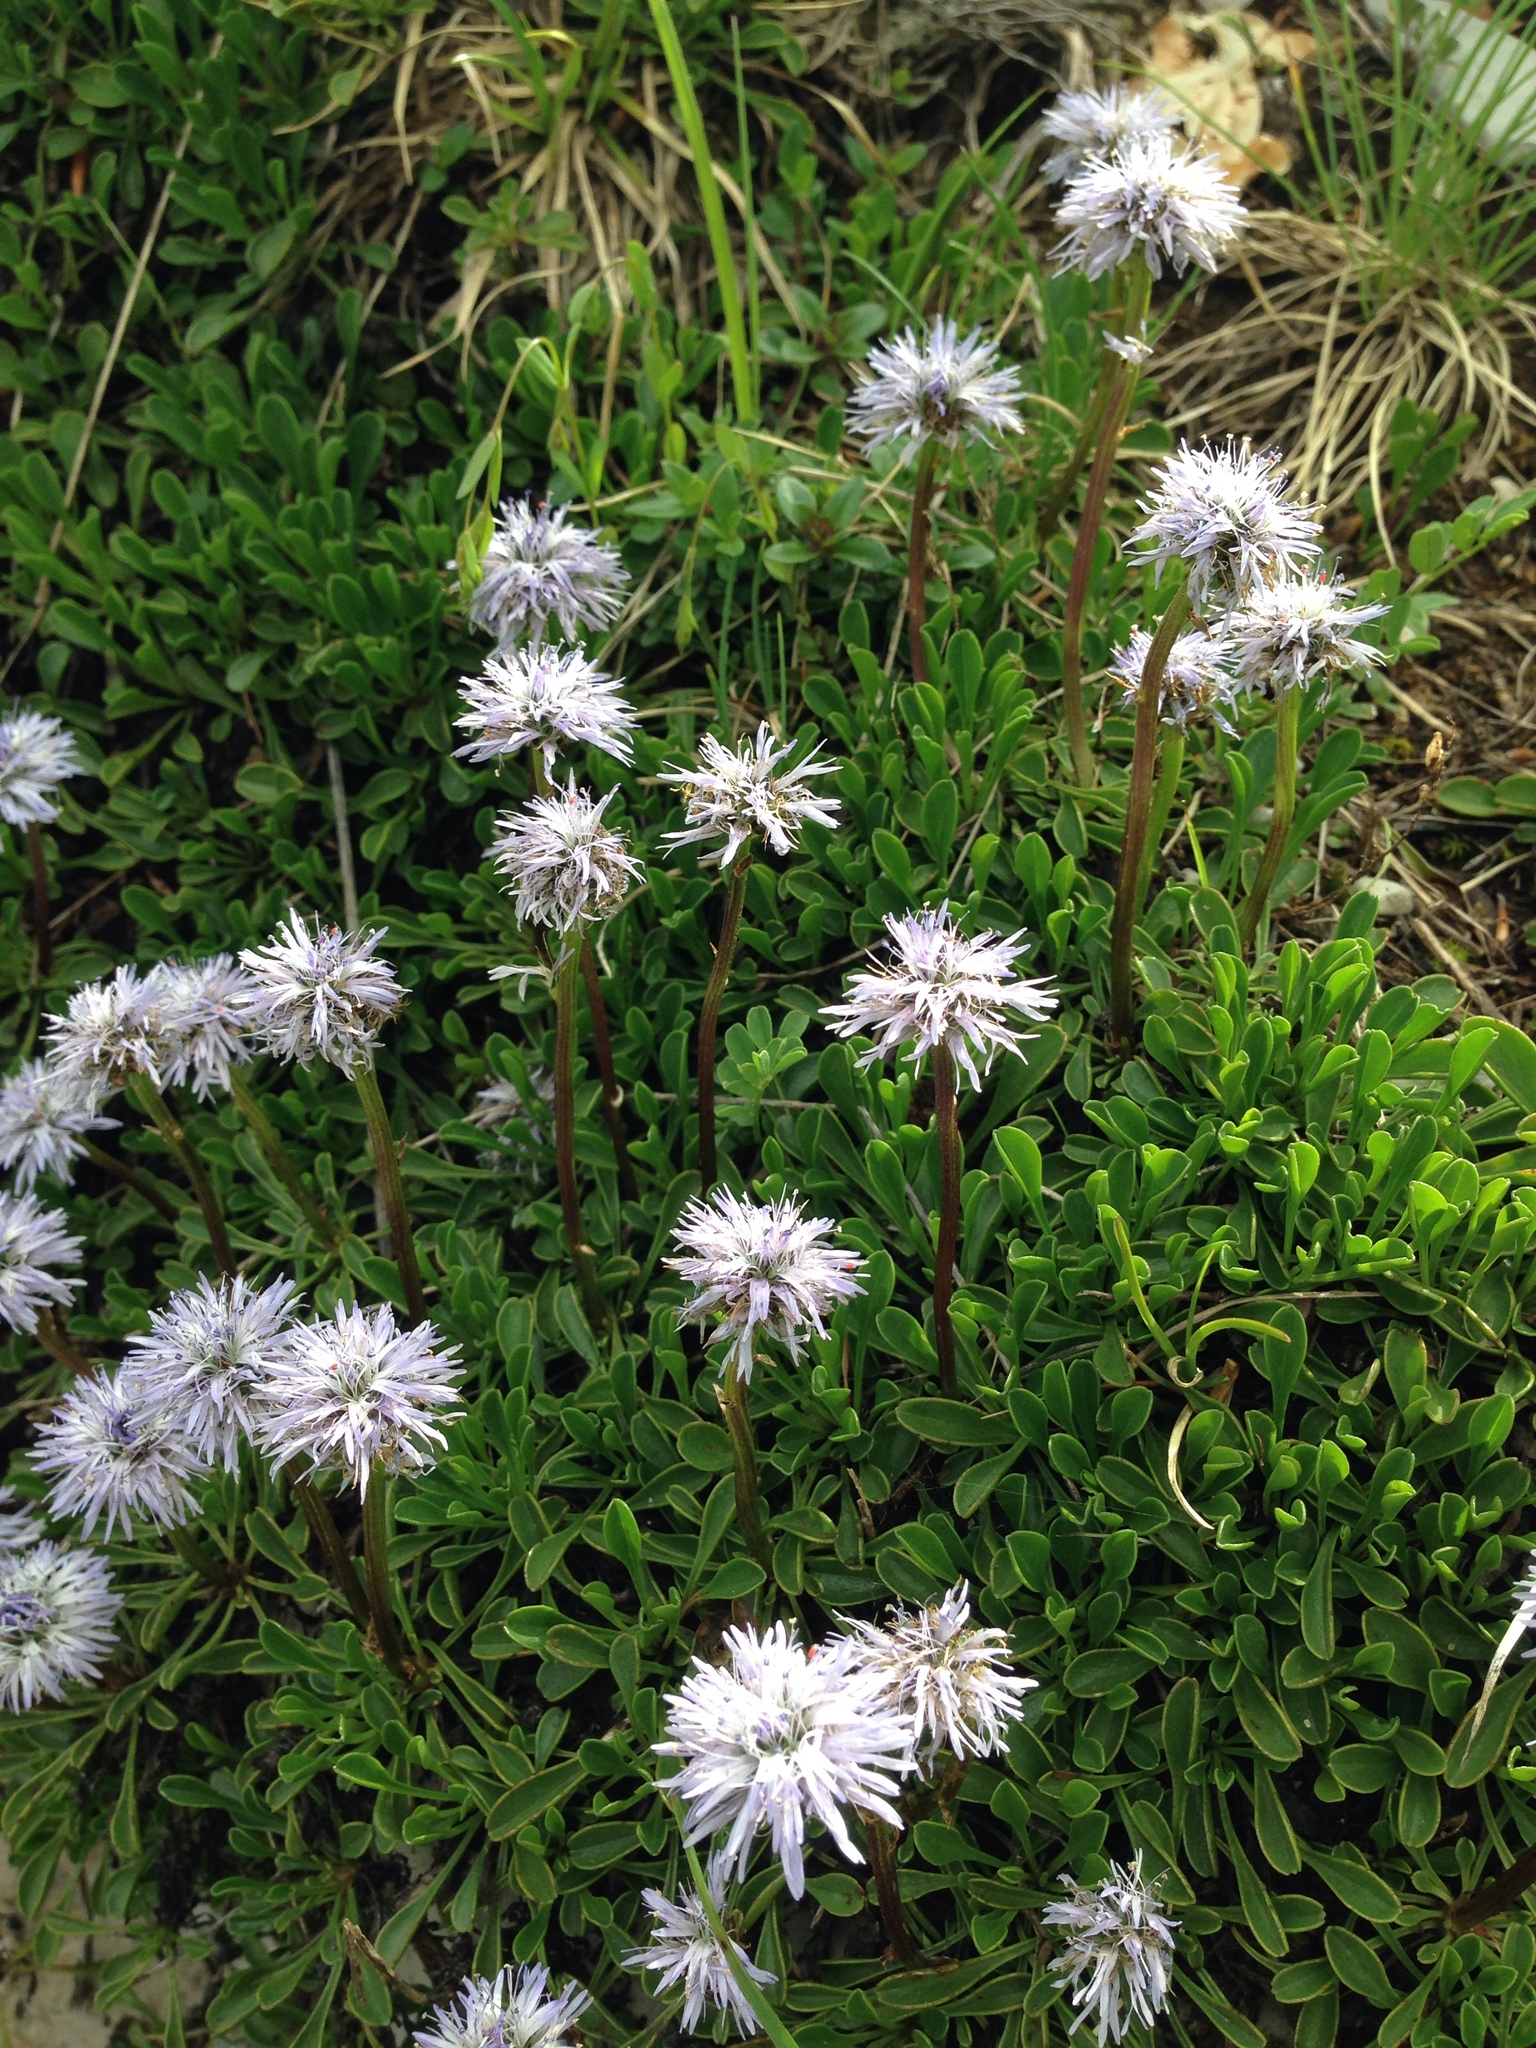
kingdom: Plantae
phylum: Tracheophyta
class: Magnoliopsida
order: Lamiales
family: Plantaginaceae
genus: Globularia
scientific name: Globularia cordifolia
